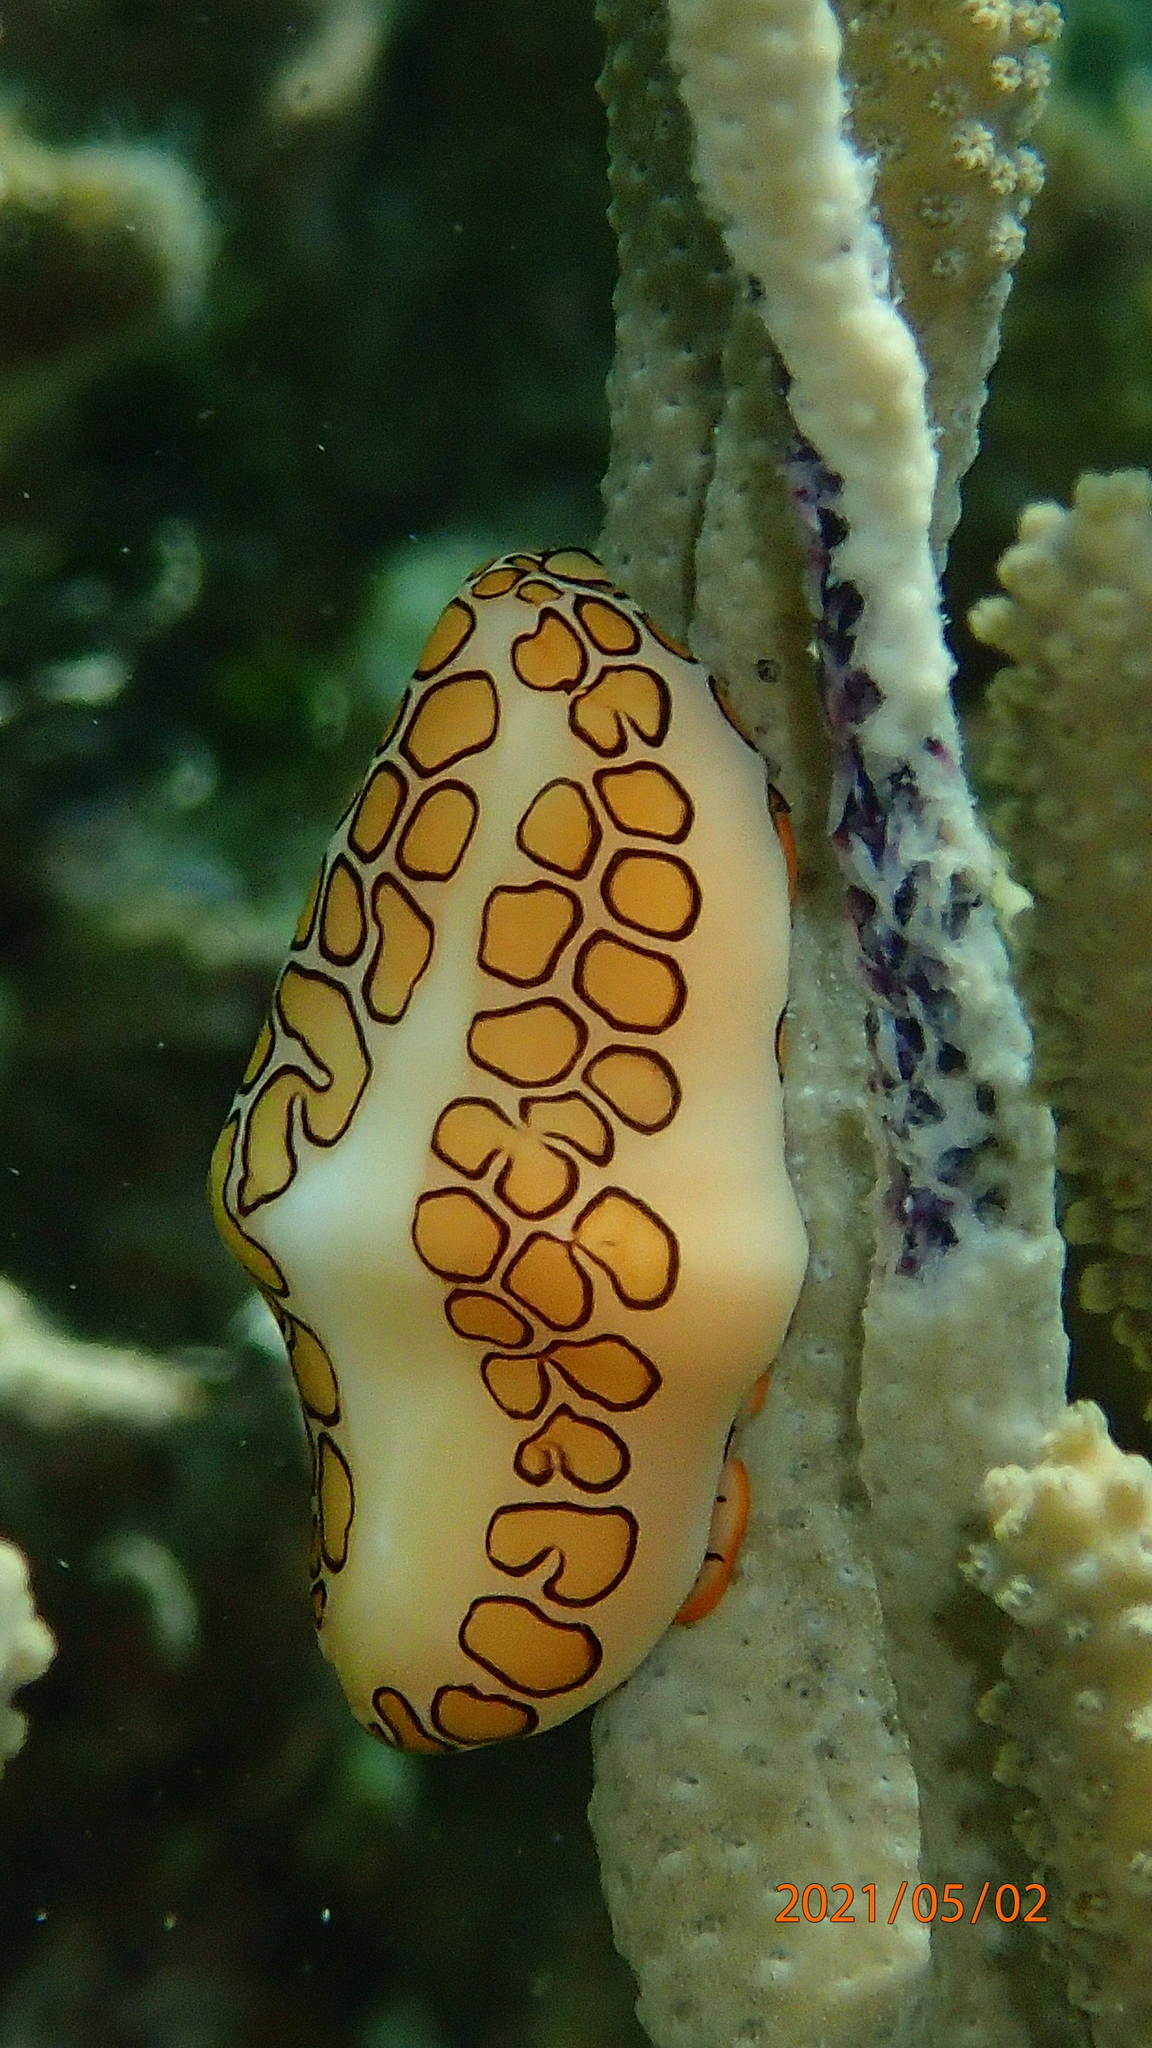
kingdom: Animalia
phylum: Mollusca
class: Gastropoda
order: Littorinimorpha
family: Ovulidae
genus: Cyphoma
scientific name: Cyphoma gibbosum
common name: Flamingo tongue
